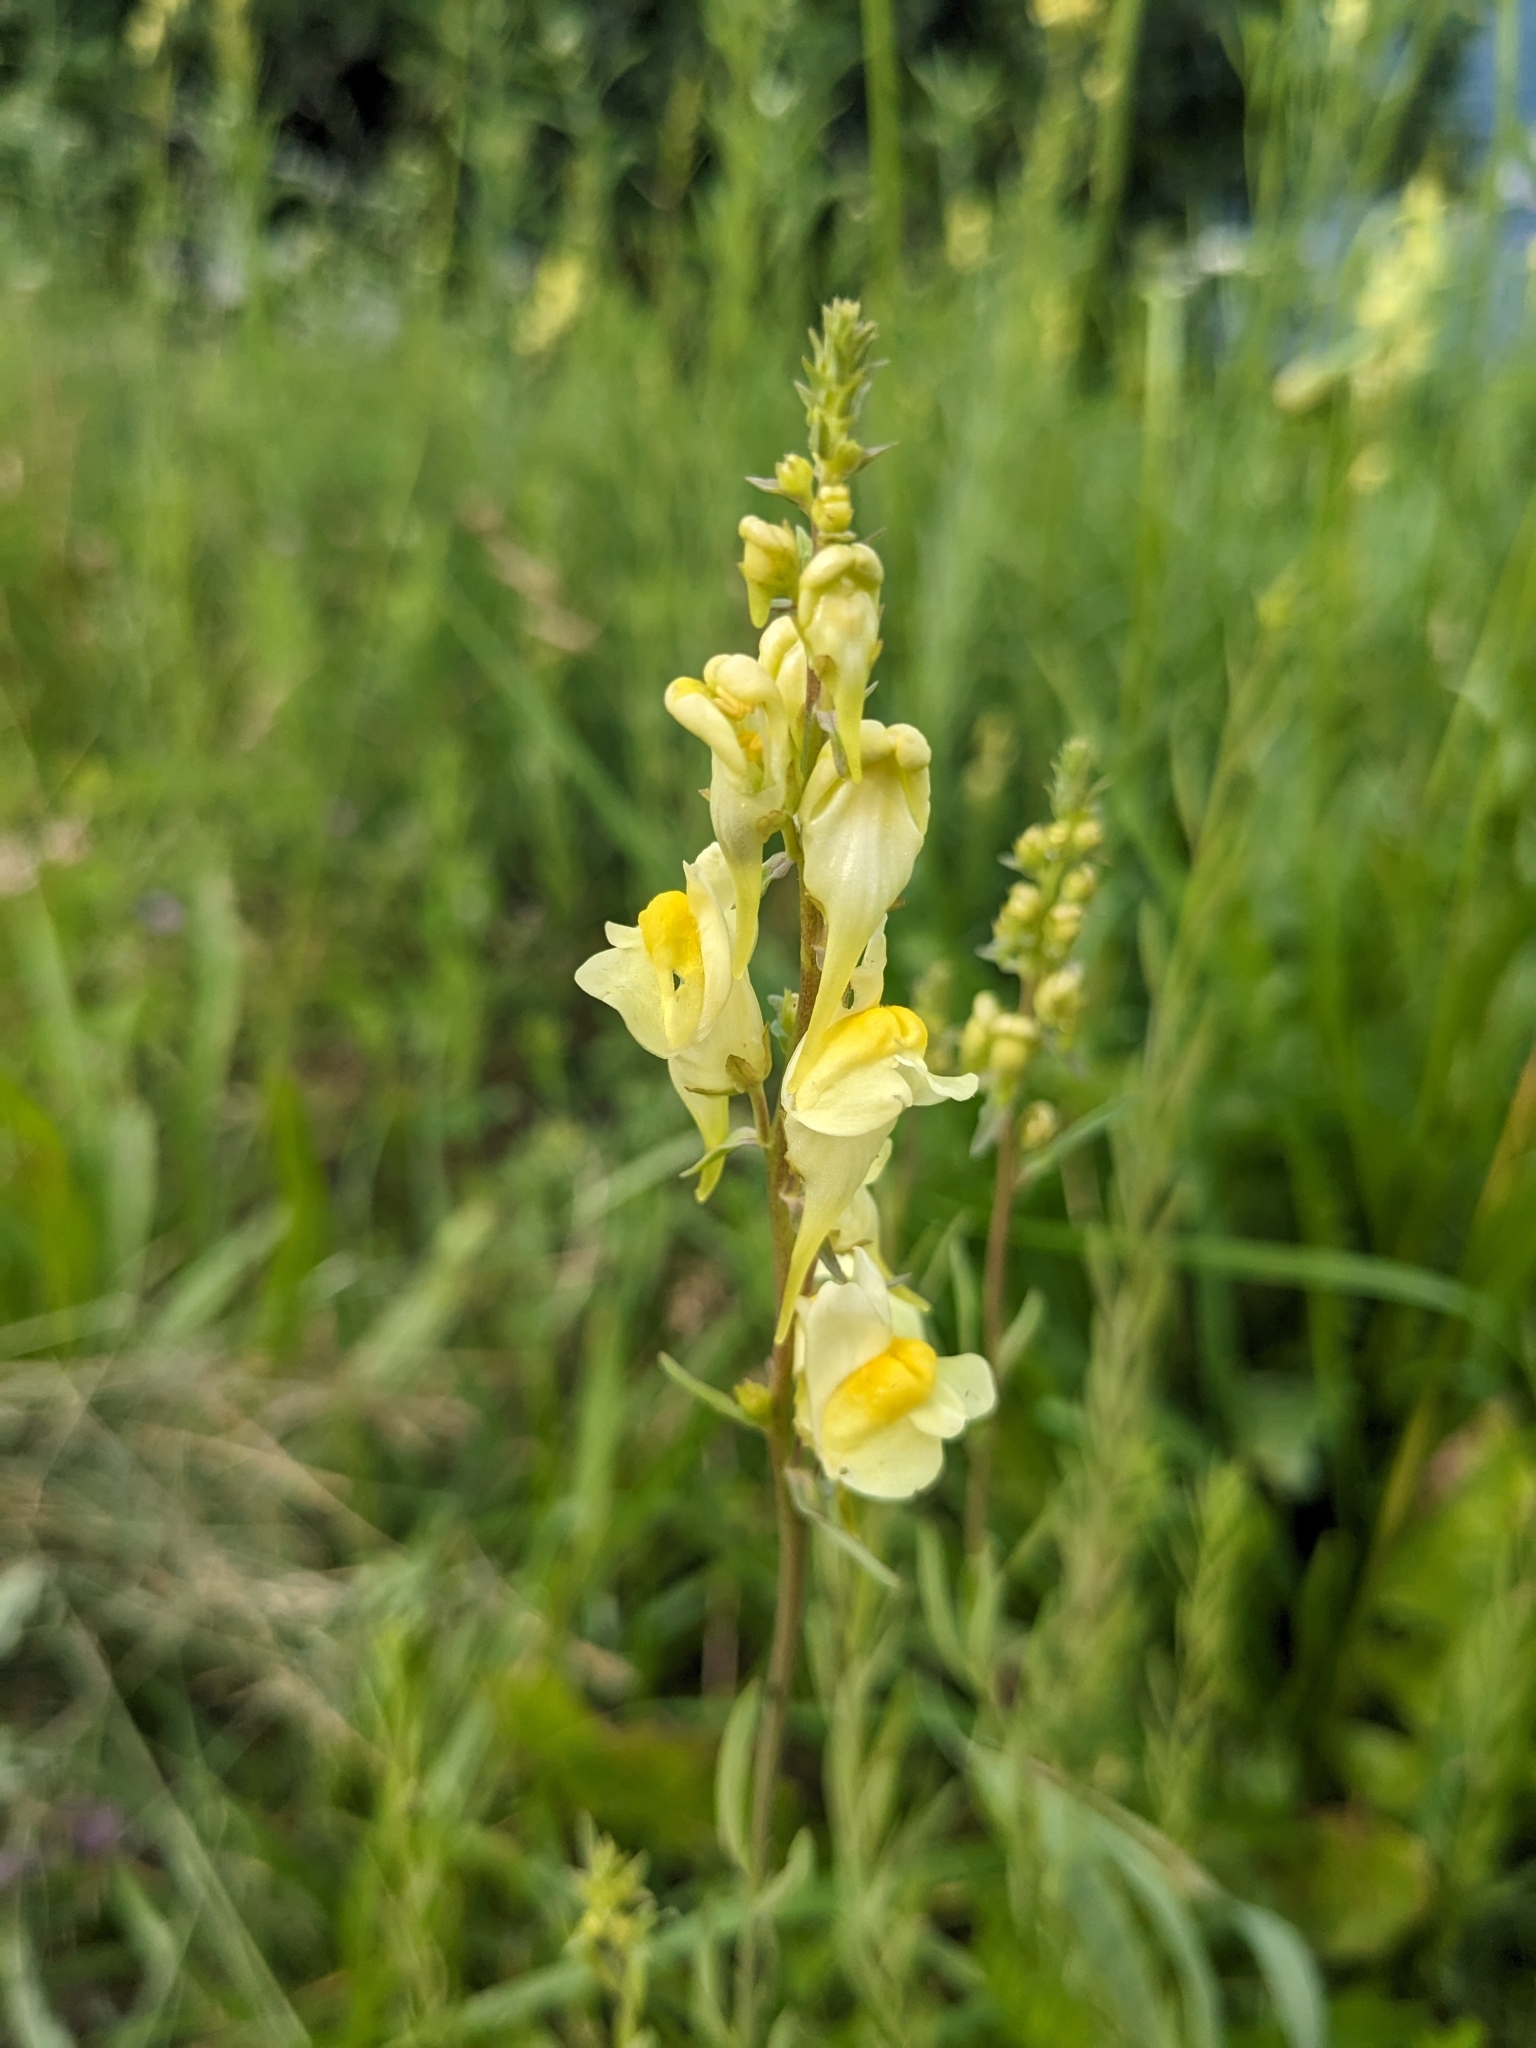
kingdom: Plantae
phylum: Tracheophyta
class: Magnoliopsida
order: Lamiales
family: Plantaginaceae
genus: Linaria
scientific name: Linaria vulgaris
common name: Butter and eggs
